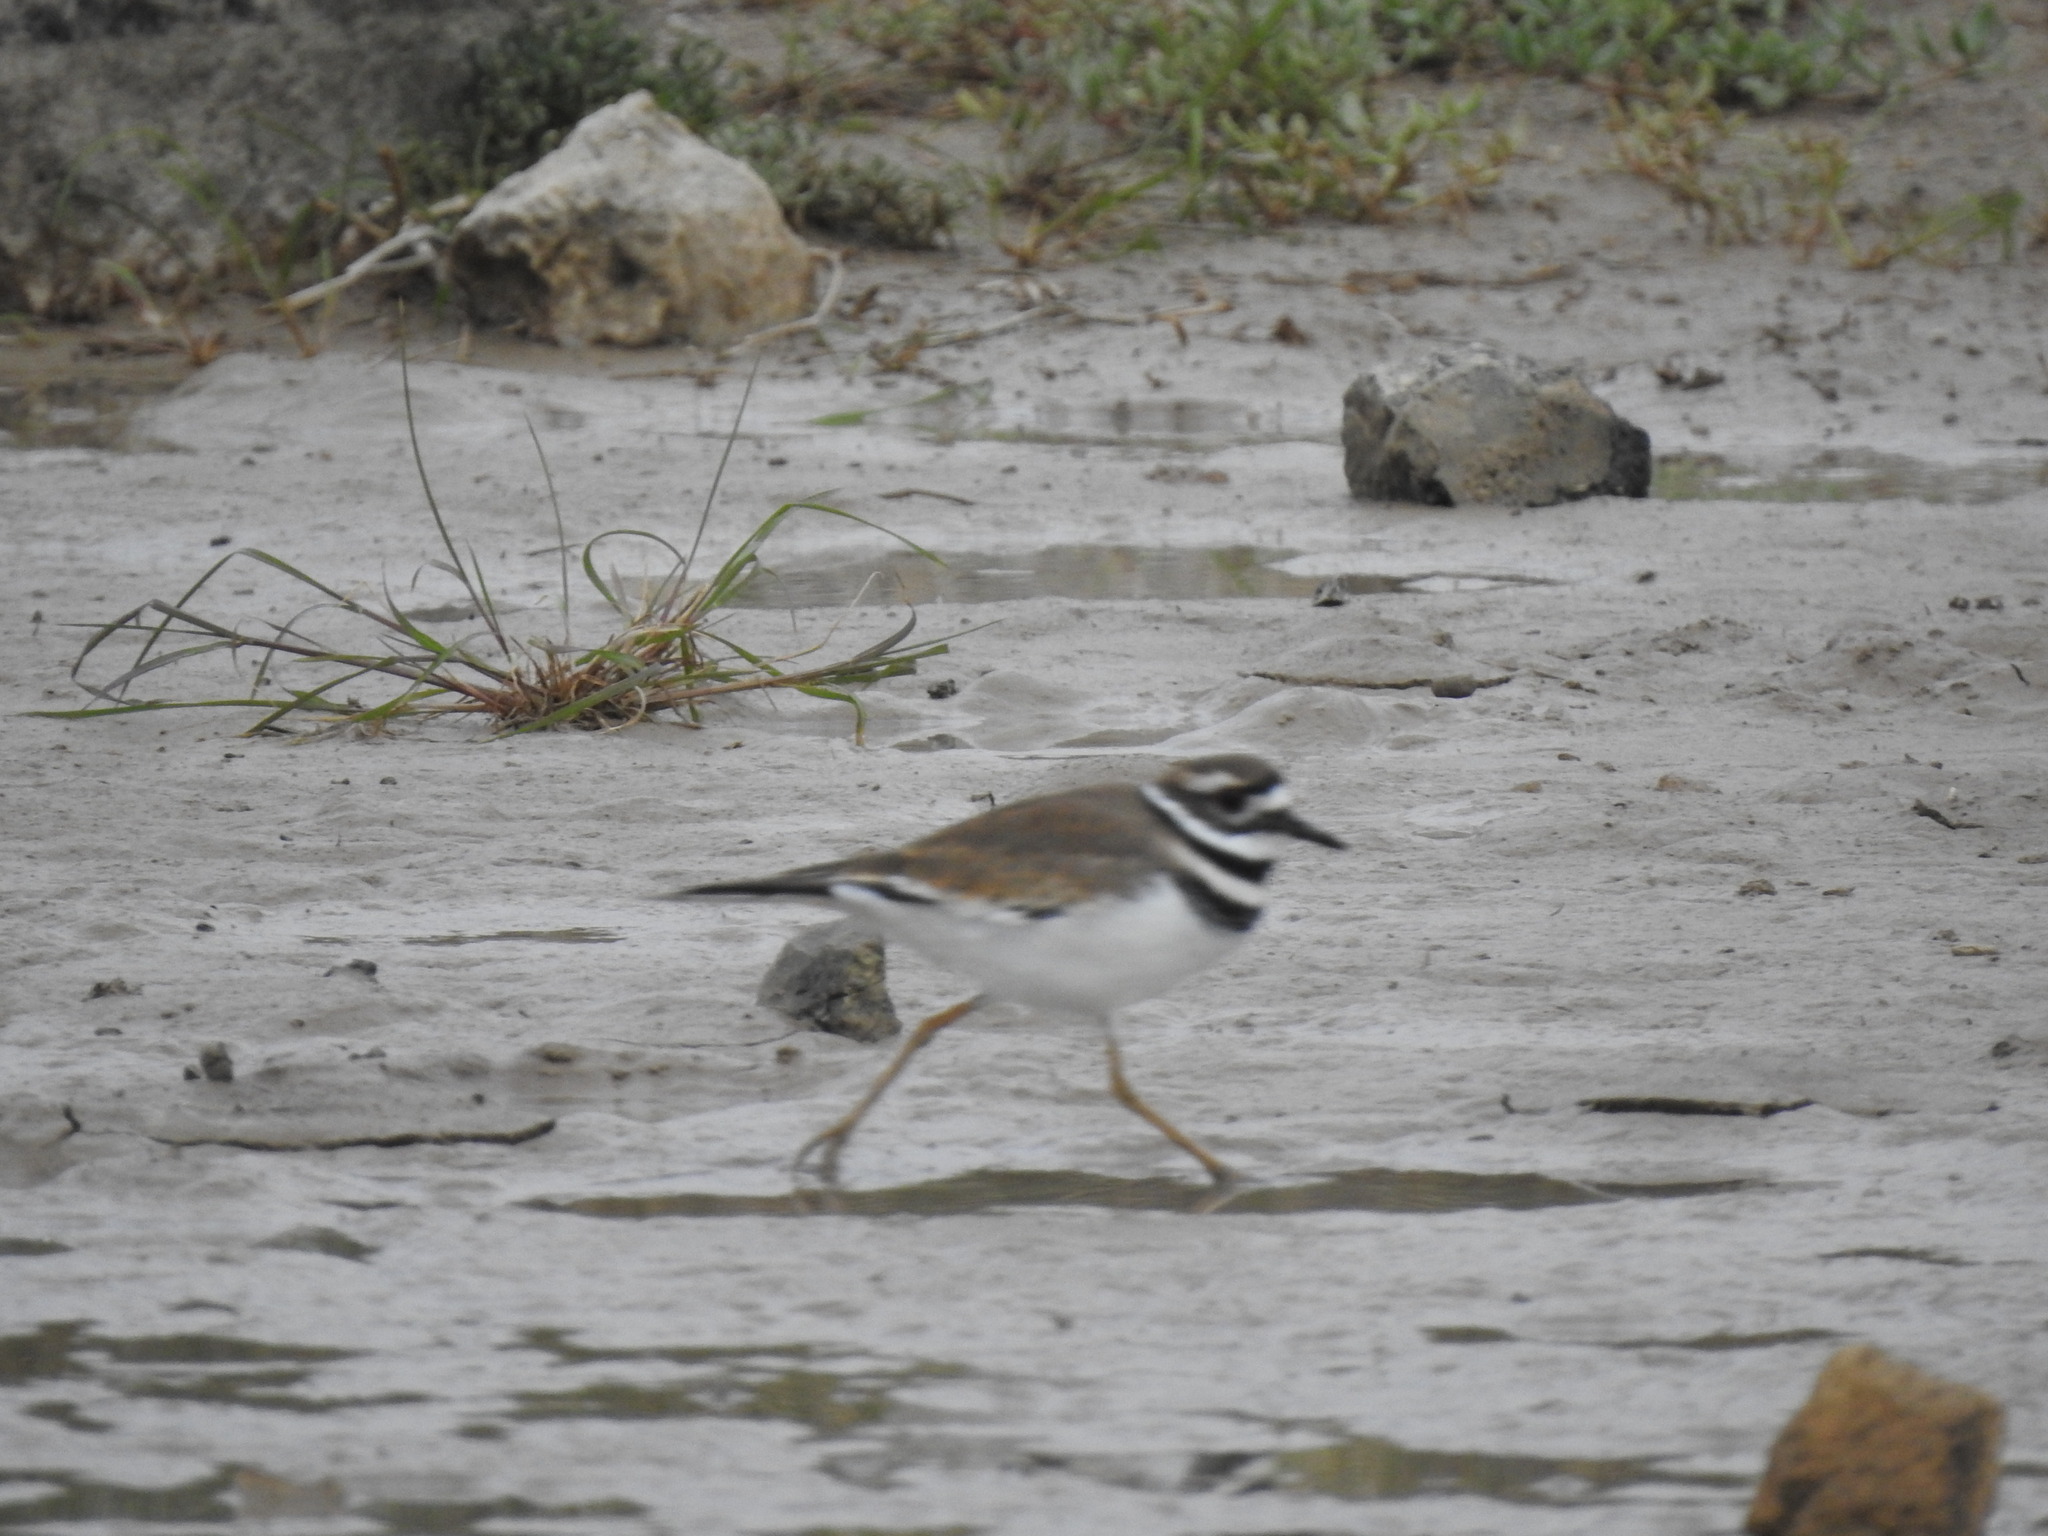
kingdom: Animalia
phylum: Chordata
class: Aves
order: Charadriiformes
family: Charadriidae
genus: Charadrius
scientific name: Charadrius vociferus
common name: Killdeer
